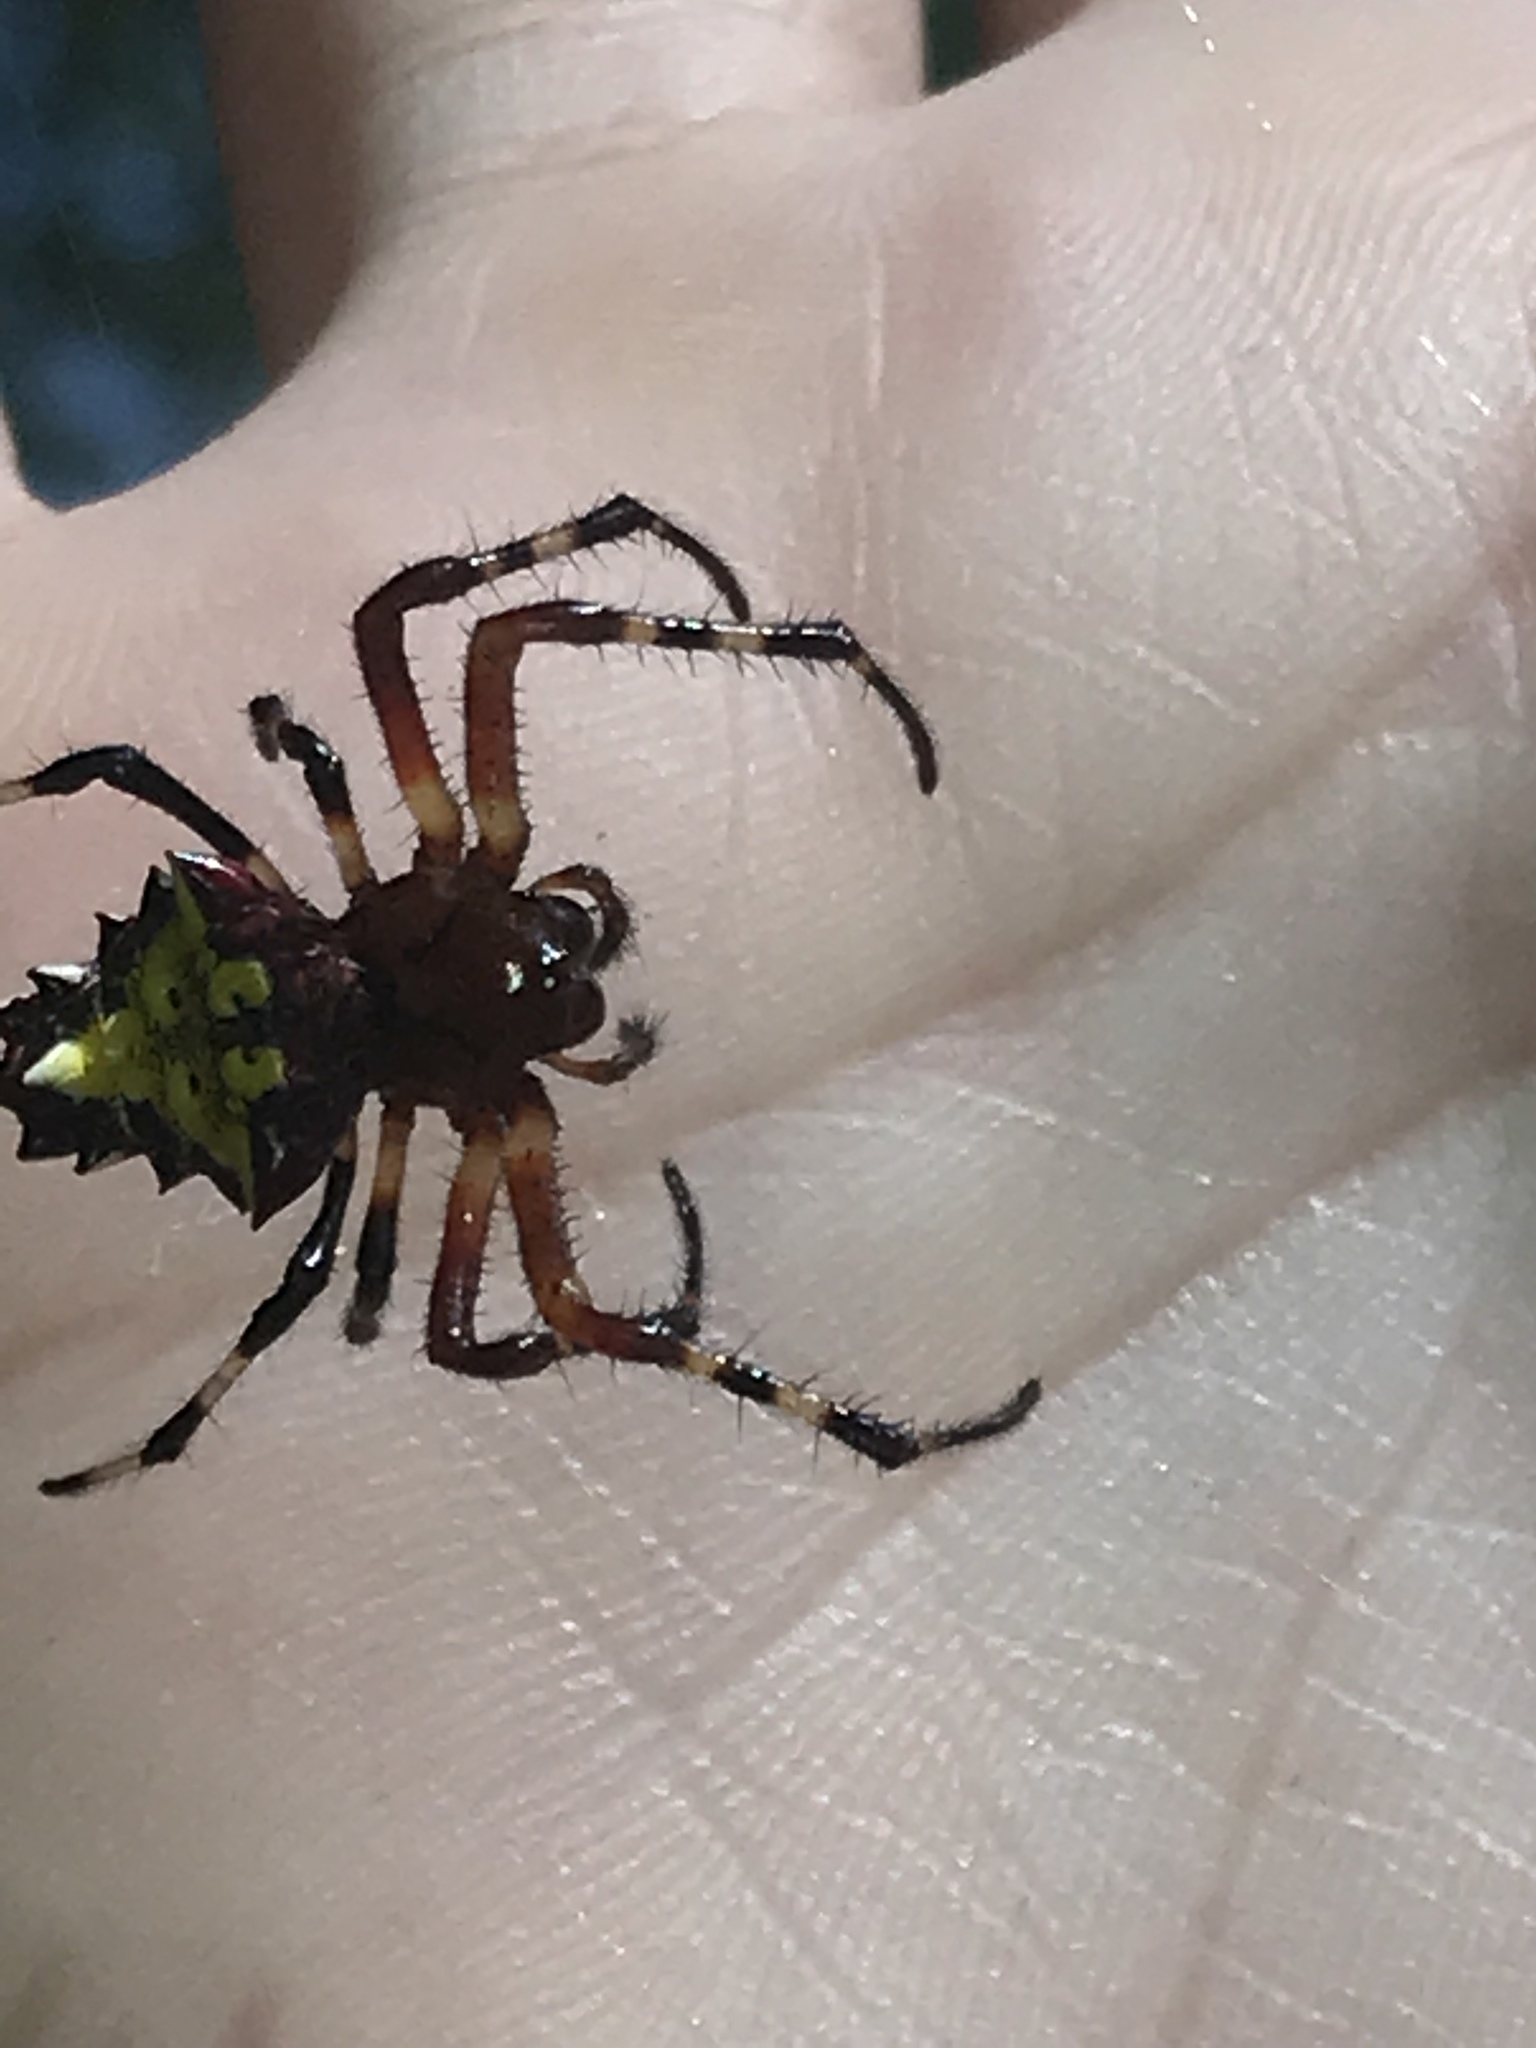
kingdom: Animalia
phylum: Arthropoda
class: Arachnida
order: Araneae
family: Araneidae
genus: Verrucosa
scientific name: Verrucosa arenata
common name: Orb weavers
